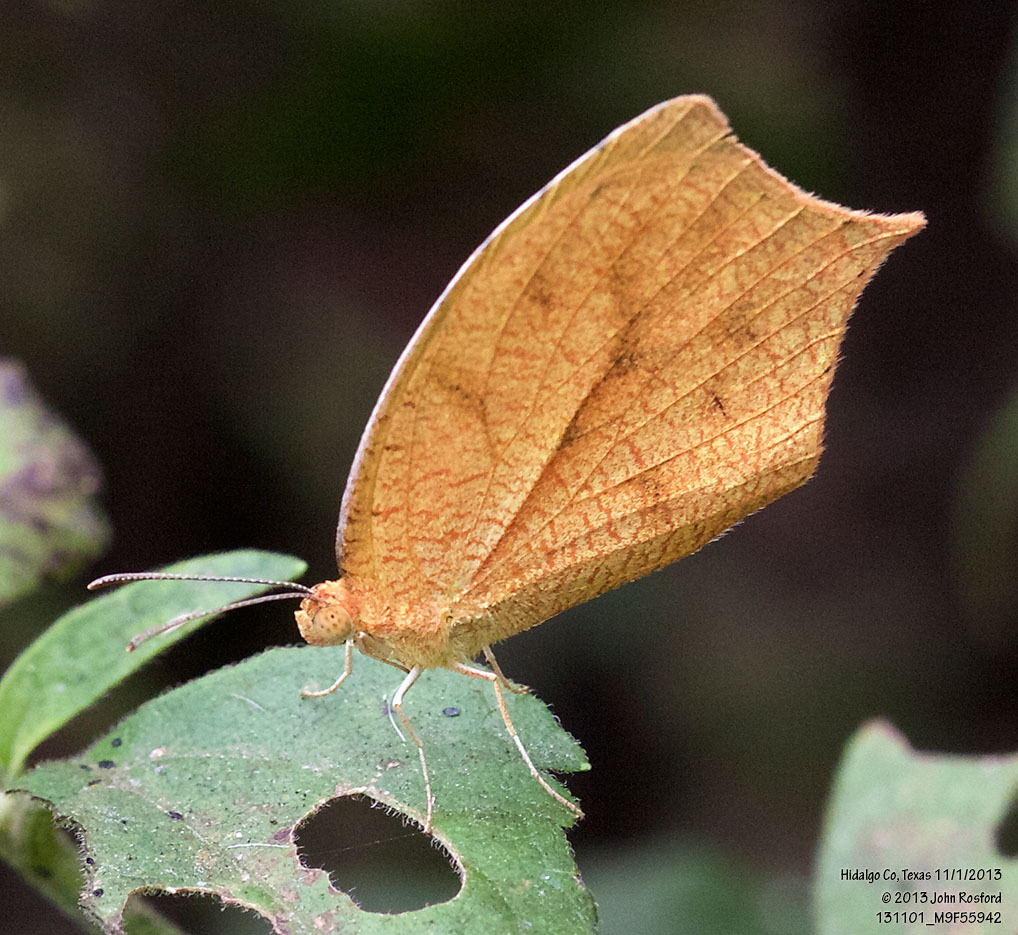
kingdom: Animalia
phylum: Arthropoda
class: Insecta
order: Lepidoptera
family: Pieridae
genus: Pyrisitia
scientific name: Pyrisitia proterpia
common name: Tailed orange
